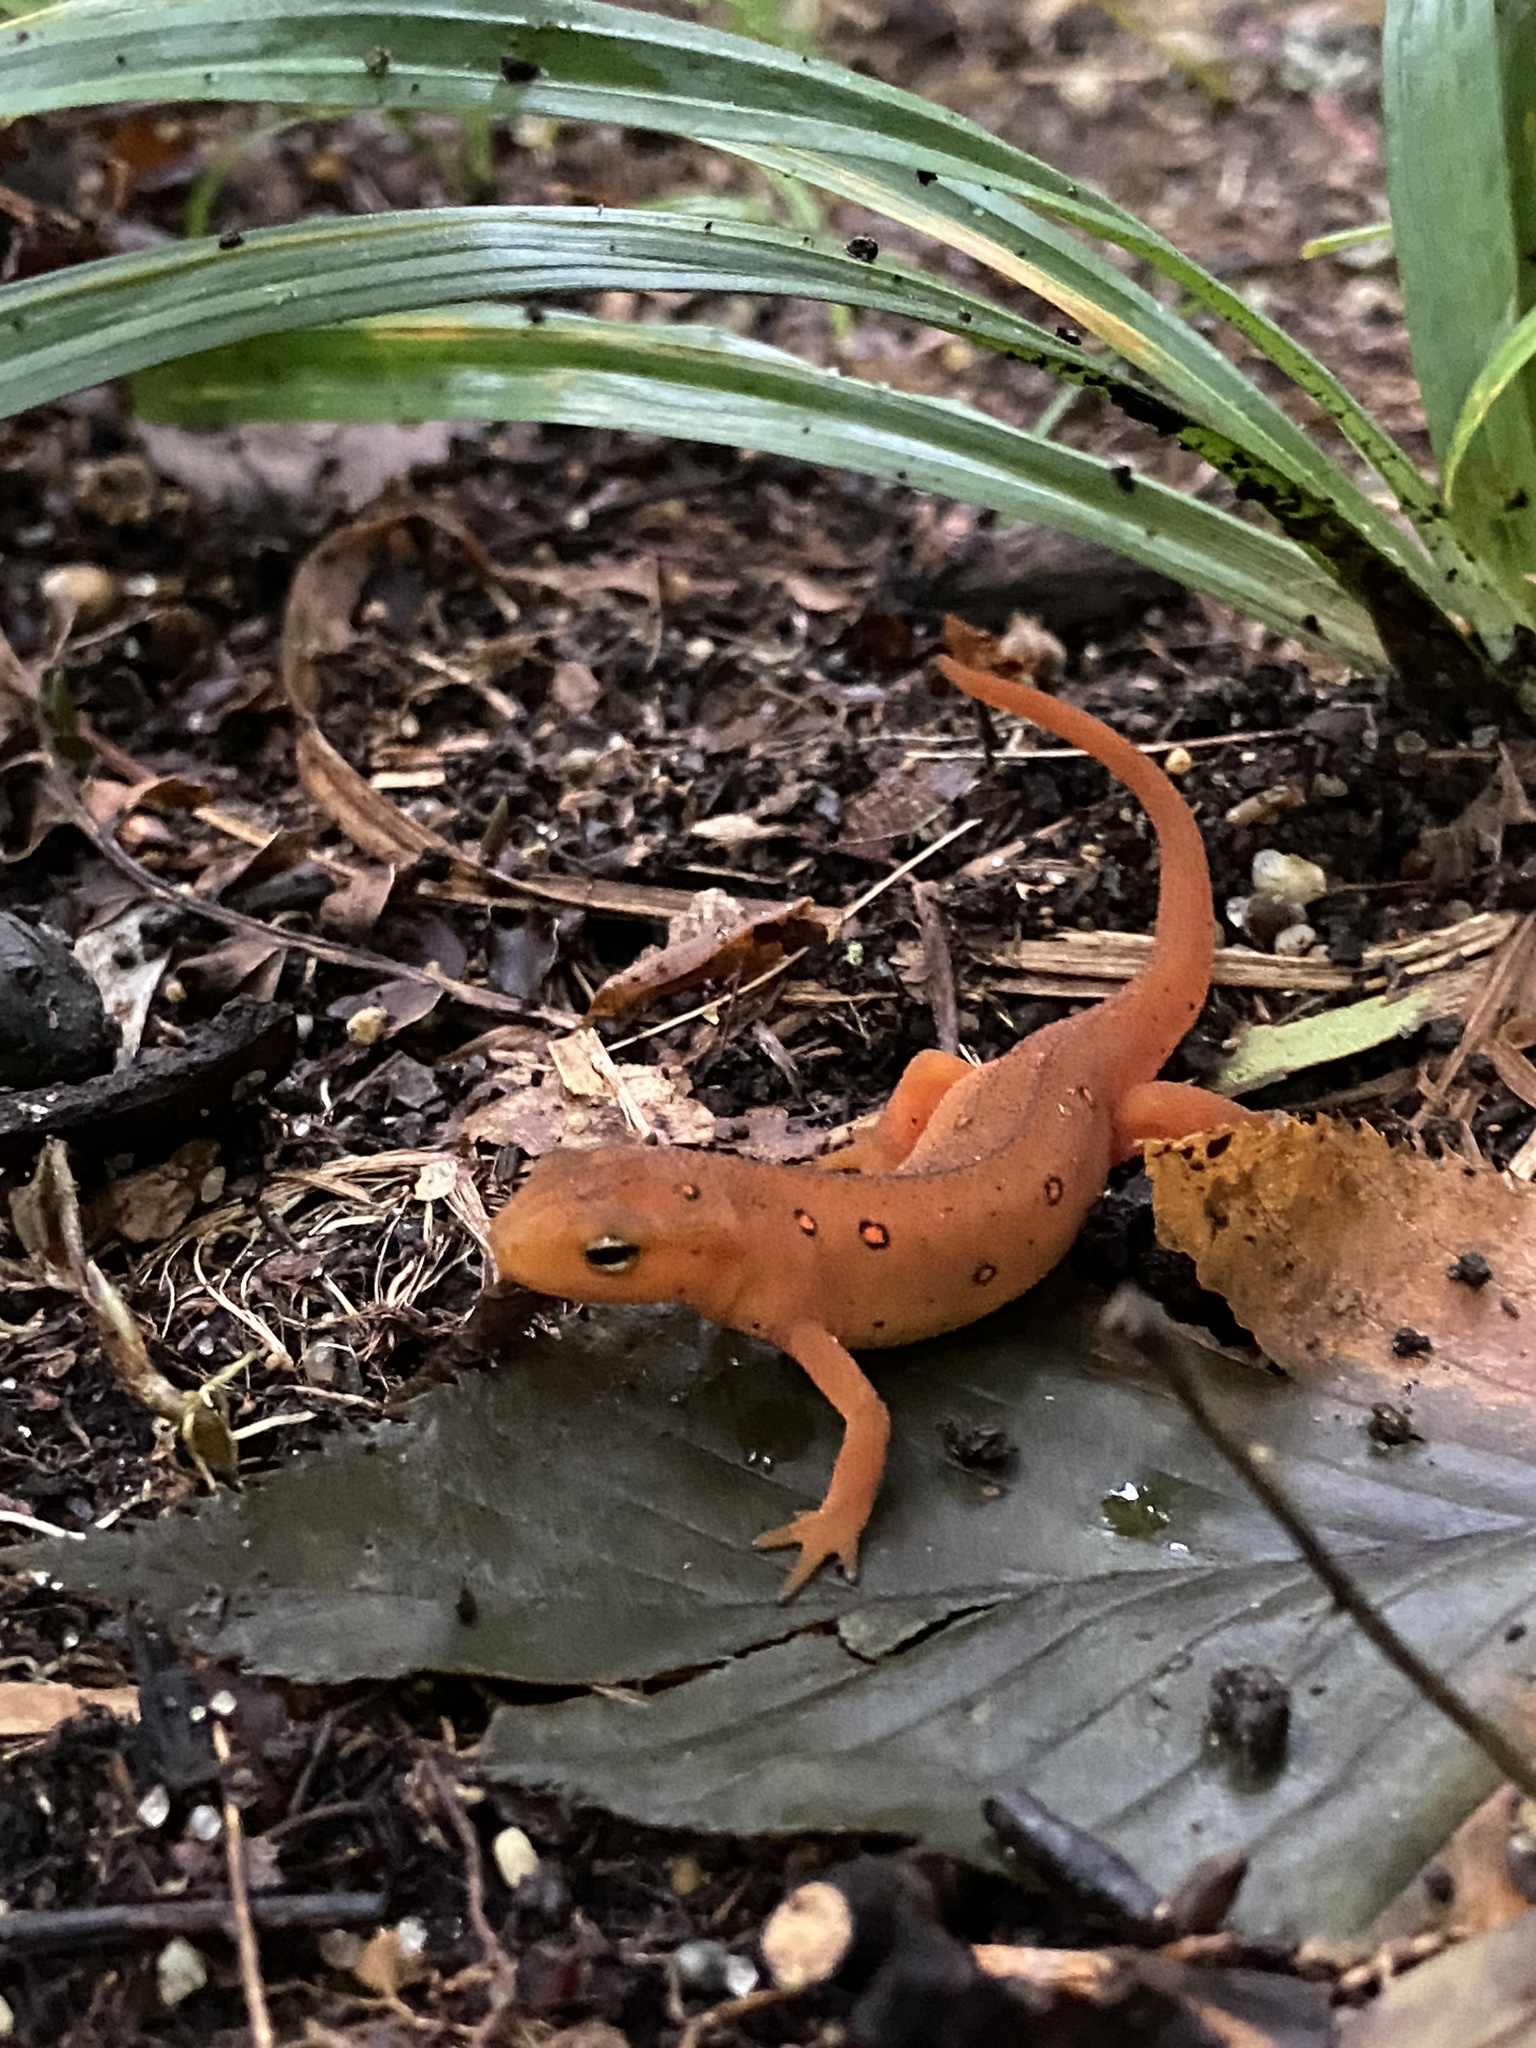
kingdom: Animalia
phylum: Chordata
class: Amphibia
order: Caudata
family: Salamandridae
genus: Notophthalmus
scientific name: Notophthalmus viridescens
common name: Eastern newt
